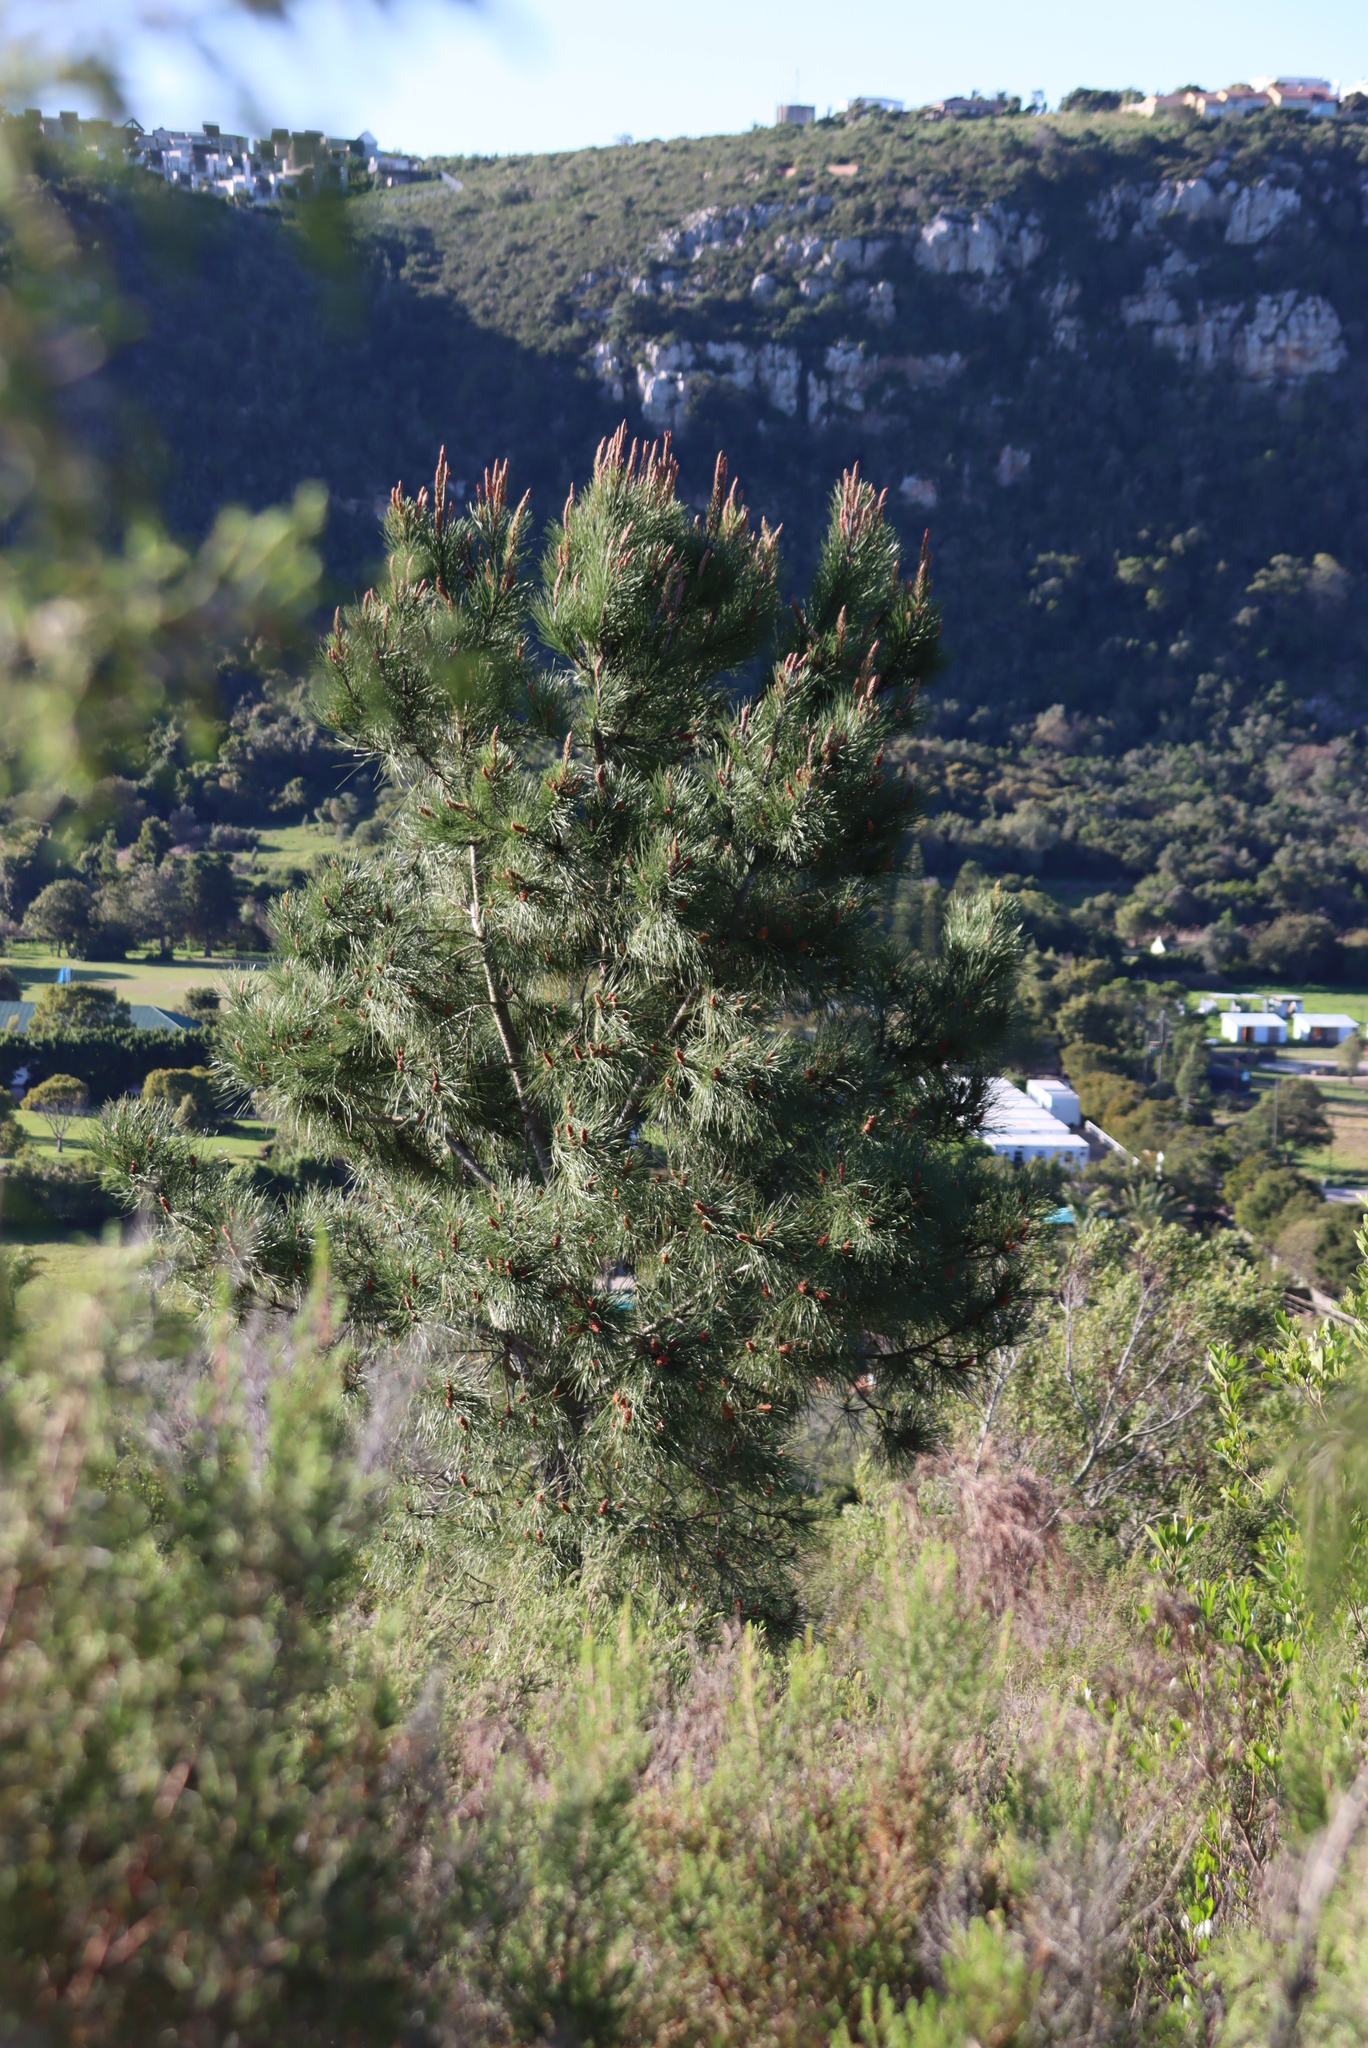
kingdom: Plantae
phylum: Tracheophyta
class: Pinopsida
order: Pinales
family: Pinaceae
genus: Pinus
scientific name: Pinus radiata
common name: Monterey pine
